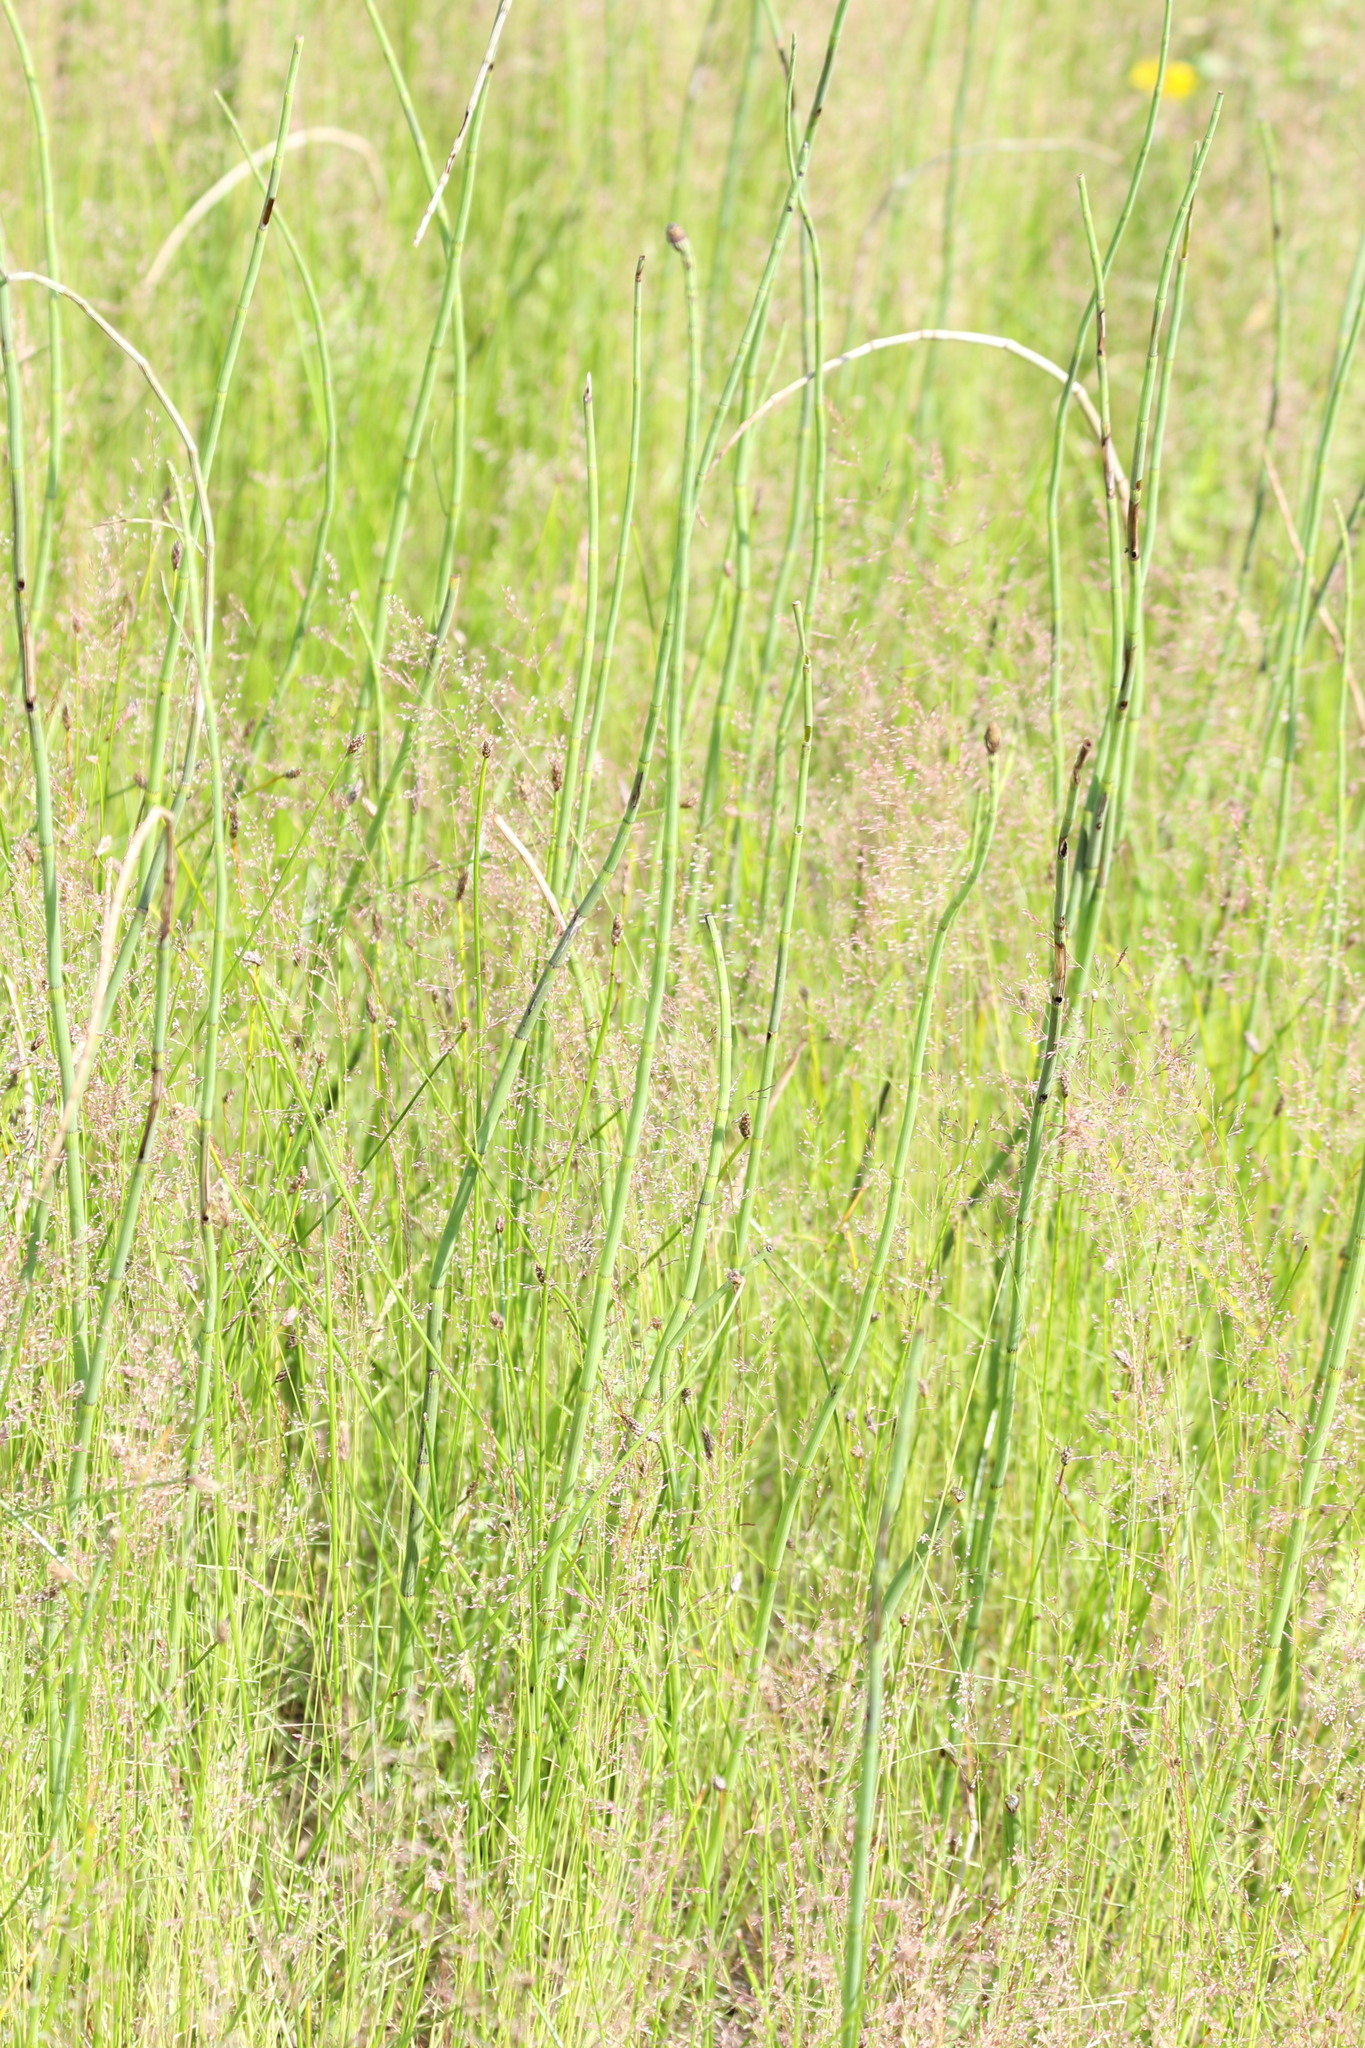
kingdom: Plantae
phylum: Tracheophyta
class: Polypodiopsida
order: Equisetales
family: Equisetaceae
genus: Equisetum
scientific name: Equisetum fluviatile
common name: Water horsetail
